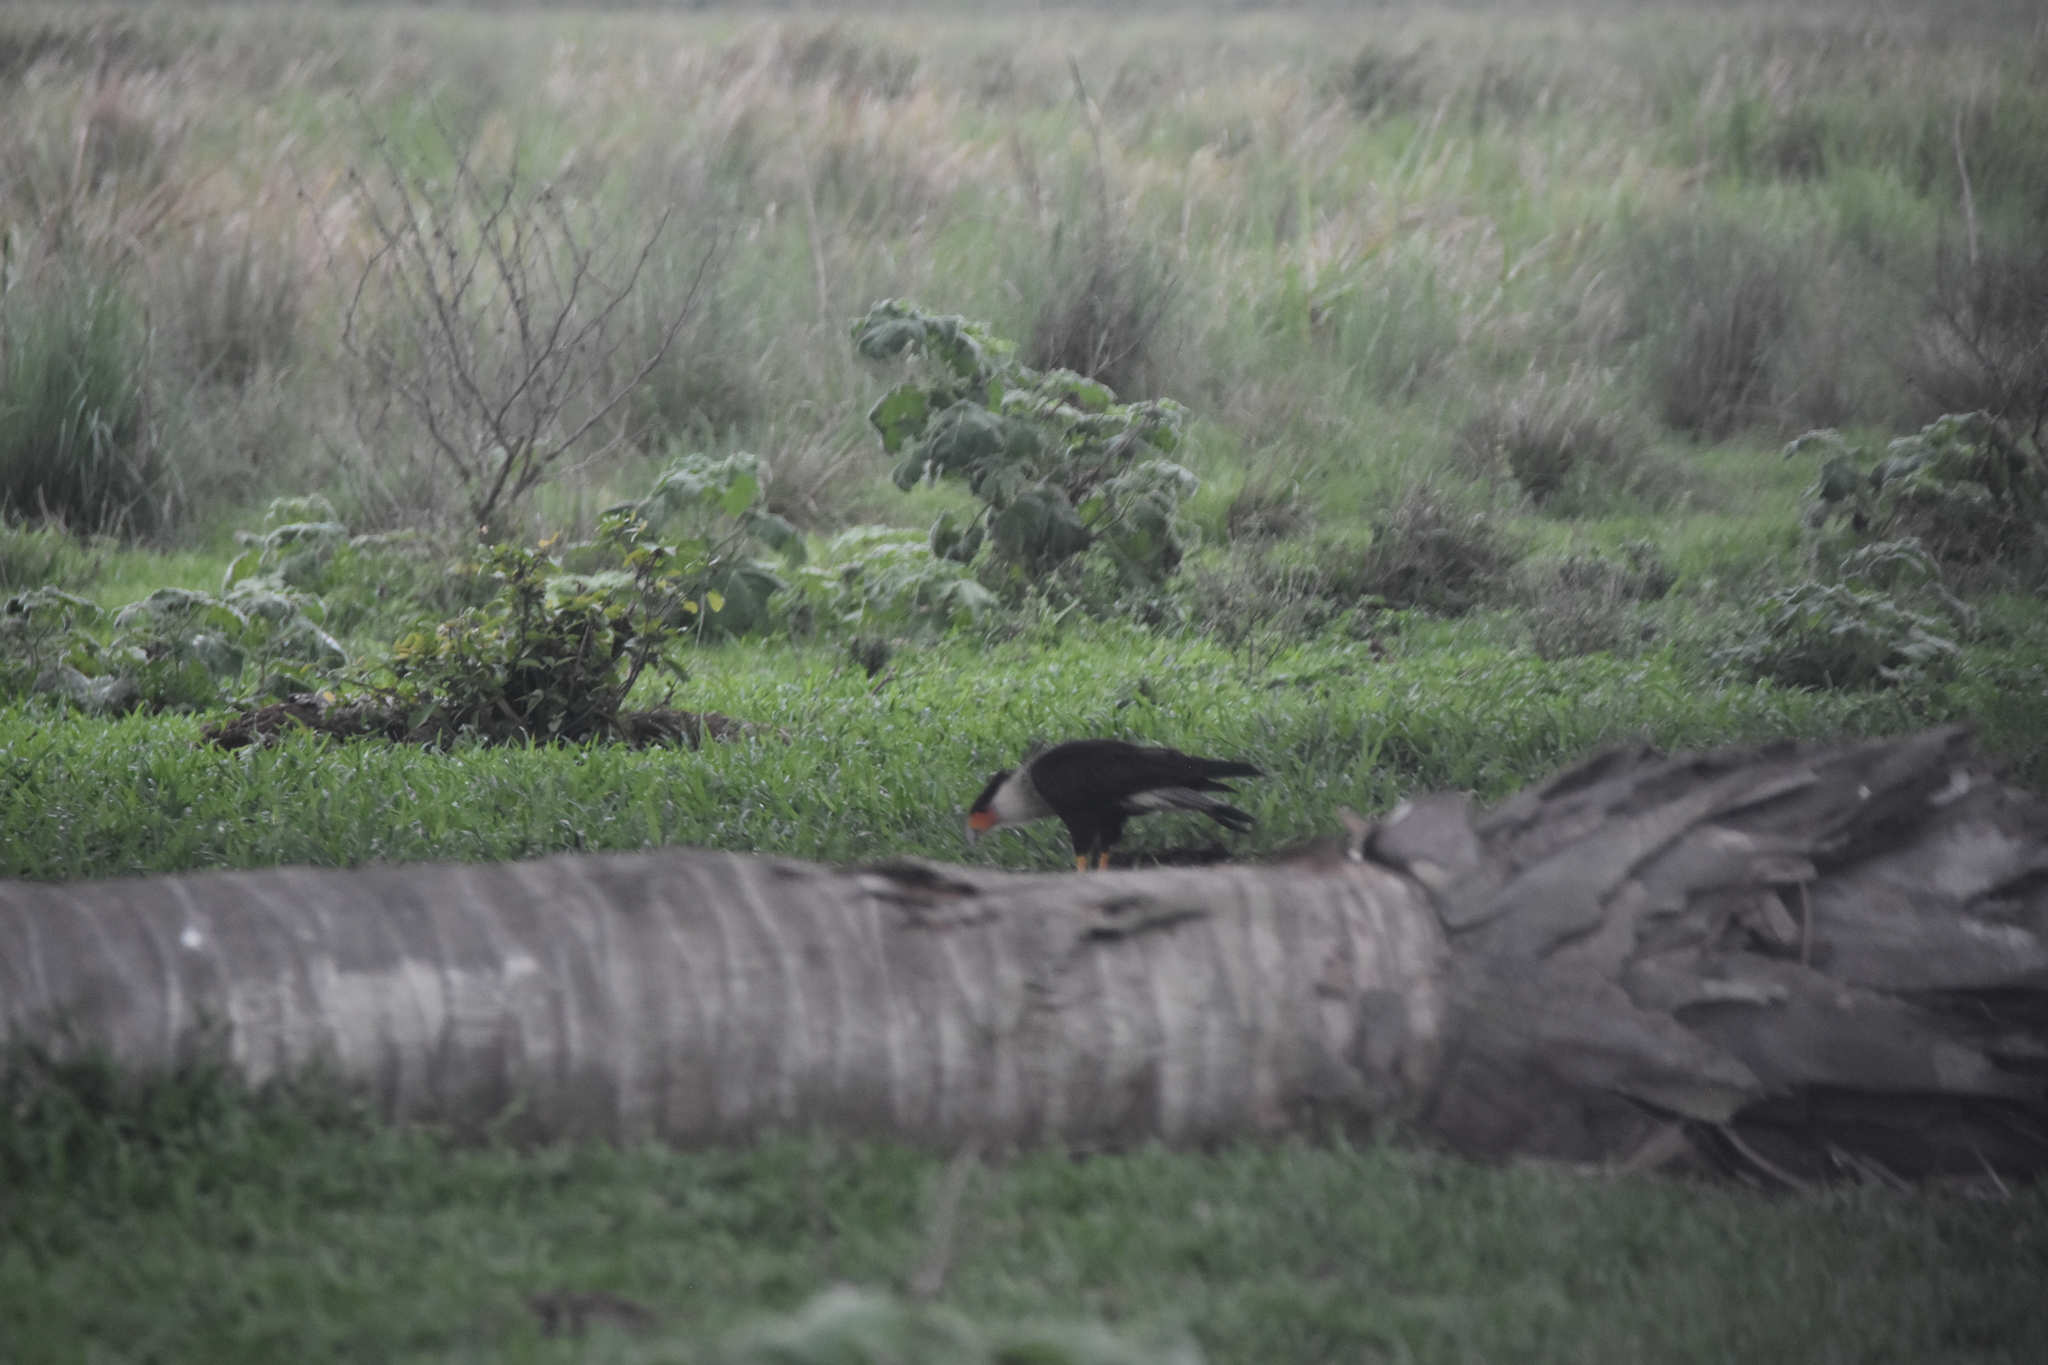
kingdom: Animalia
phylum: Chordata
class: Aves
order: Falconiformes
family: Falconidae
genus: Caracara
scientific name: Caracara plancus
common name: Southern caracara
